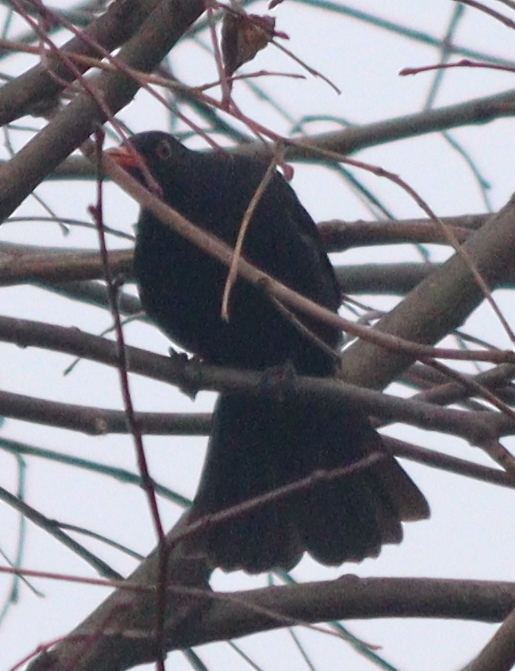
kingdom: Animalia
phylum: Chordata
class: Aves
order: Passeriformes
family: Turdidae
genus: Turdus
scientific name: Turdus merula
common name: Common blackbird
